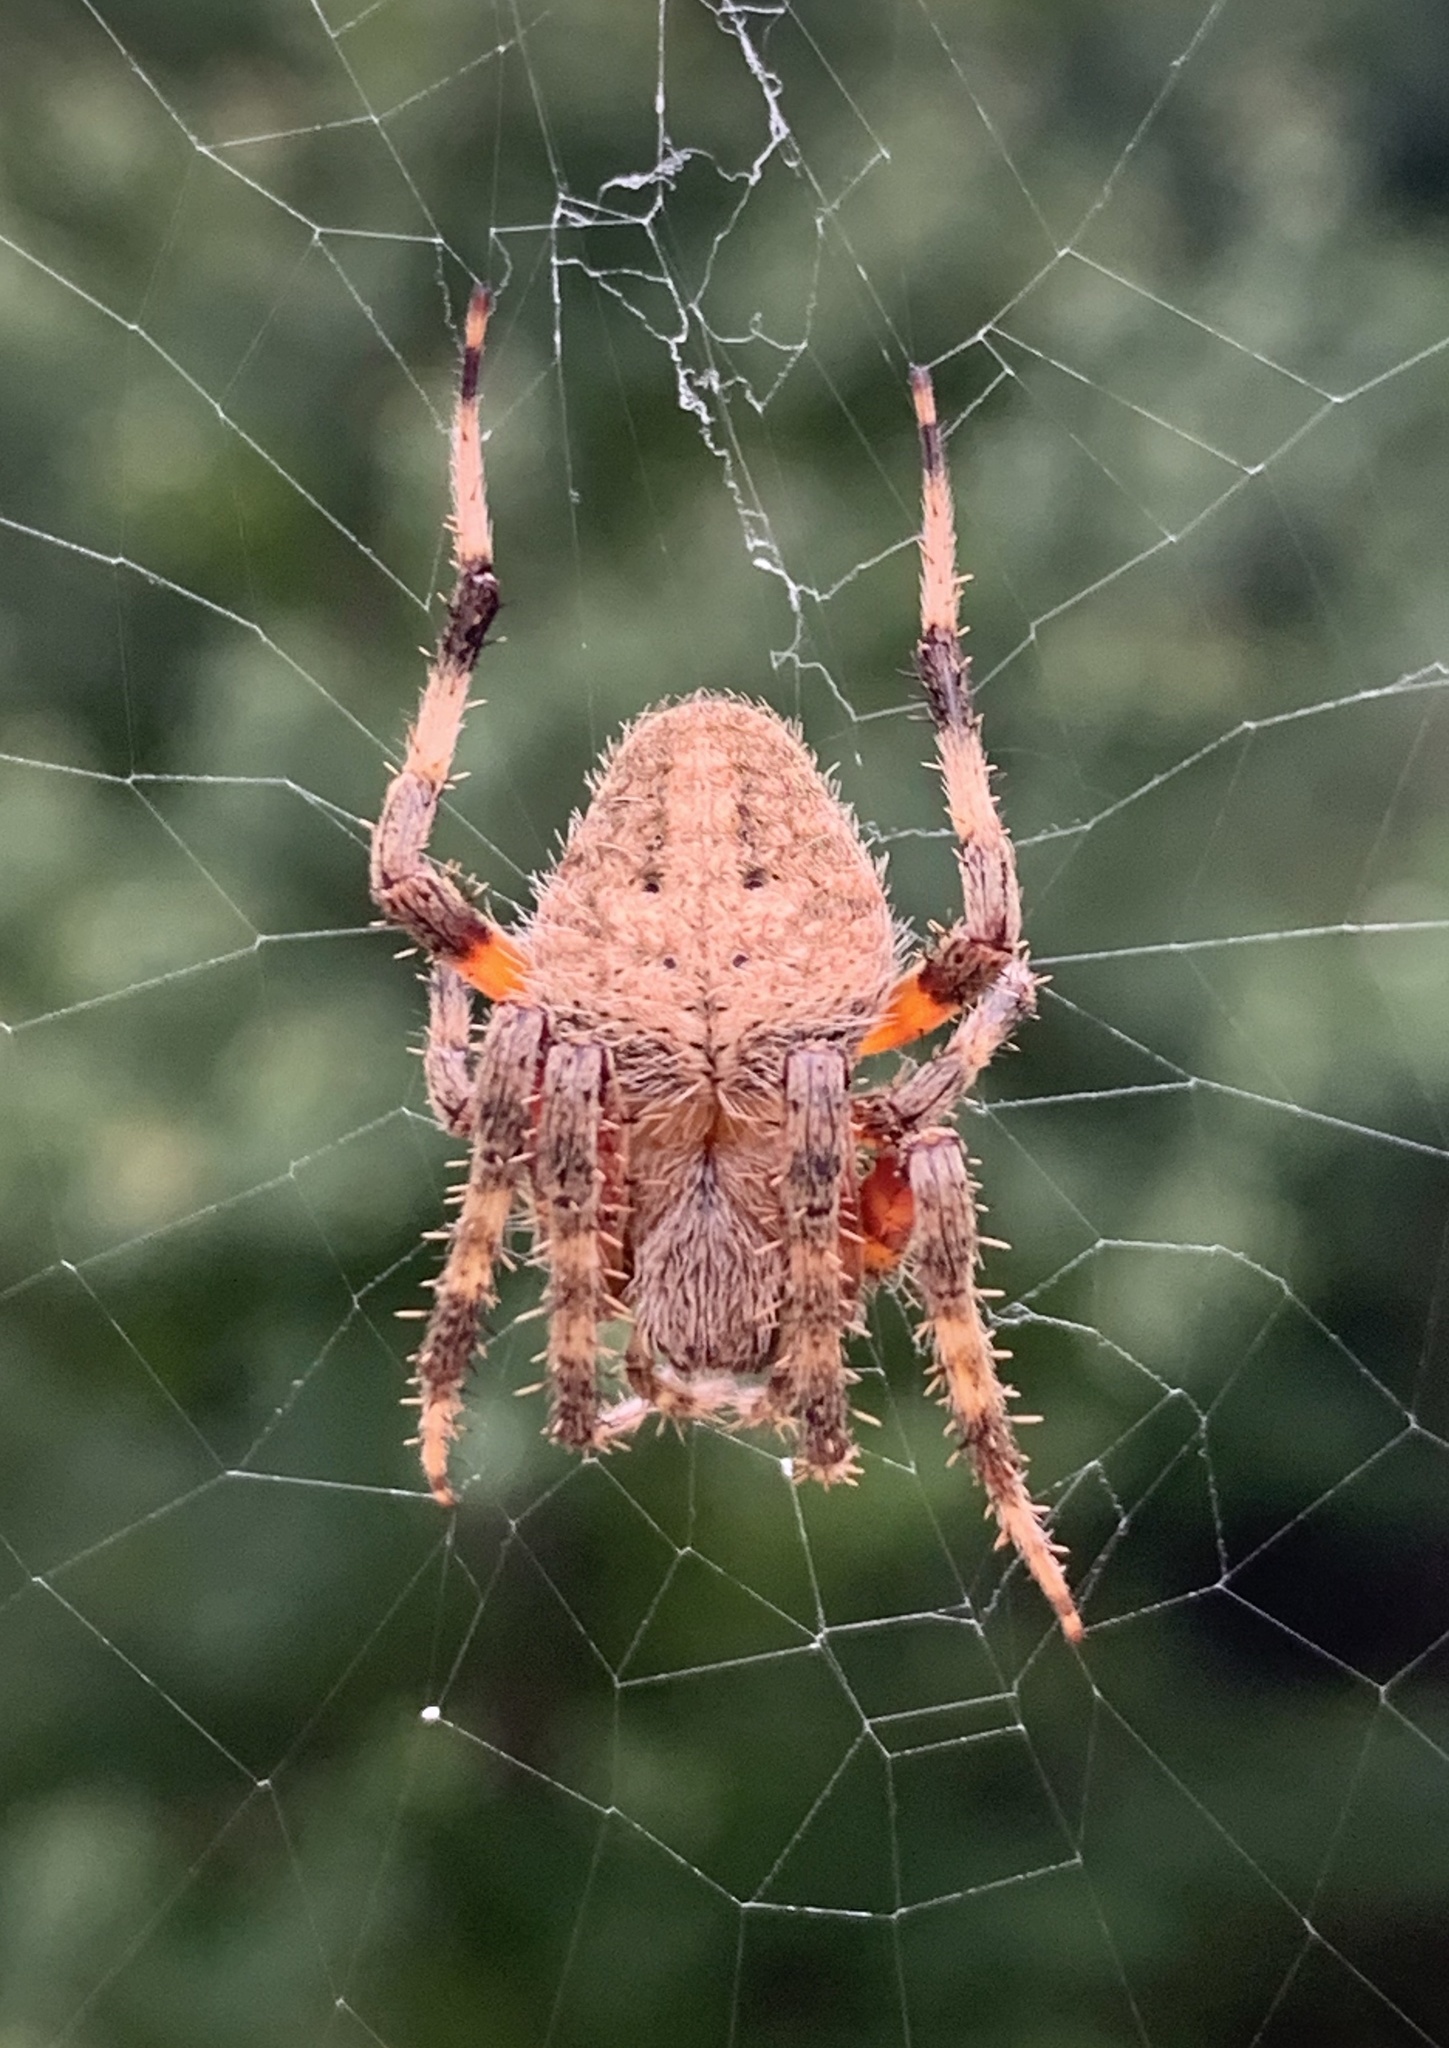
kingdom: Animalia
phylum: Arthropoda
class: Arachnida
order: Araneae
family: Araneidae
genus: Neoscona
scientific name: Neoscona crucifera
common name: Spotted orbweaver
